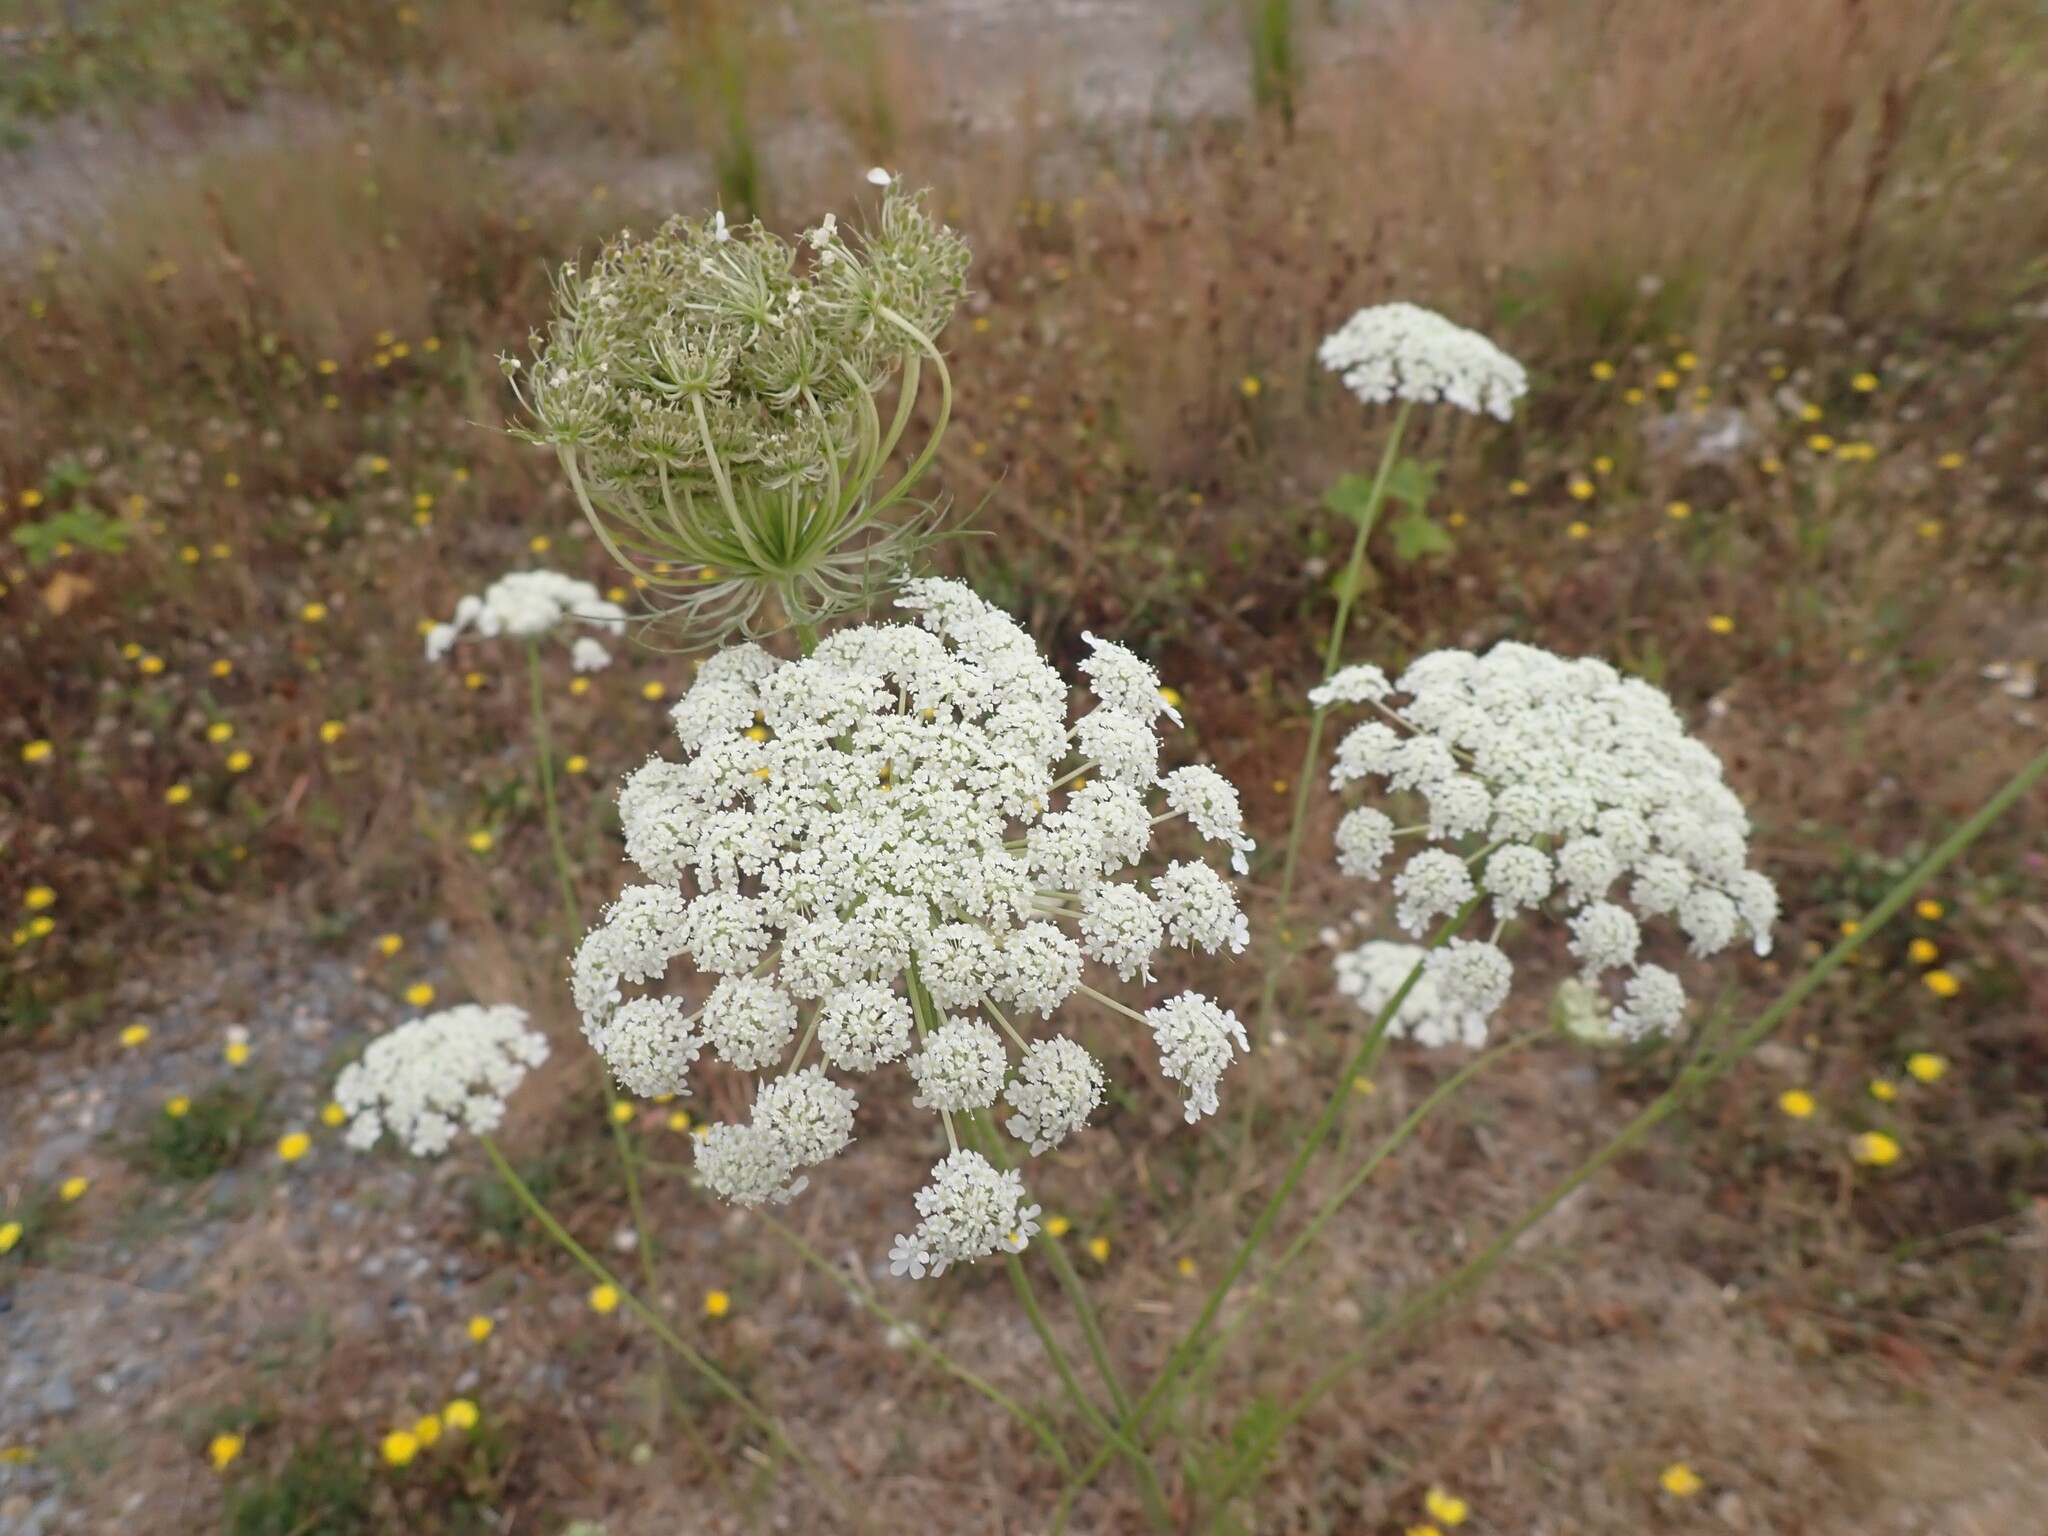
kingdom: Plantae
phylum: Tracheophyta
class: Magnoliopsida
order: Apiales
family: Apiaceae
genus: Daucus
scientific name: Daucus carota
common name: Wild carrot
